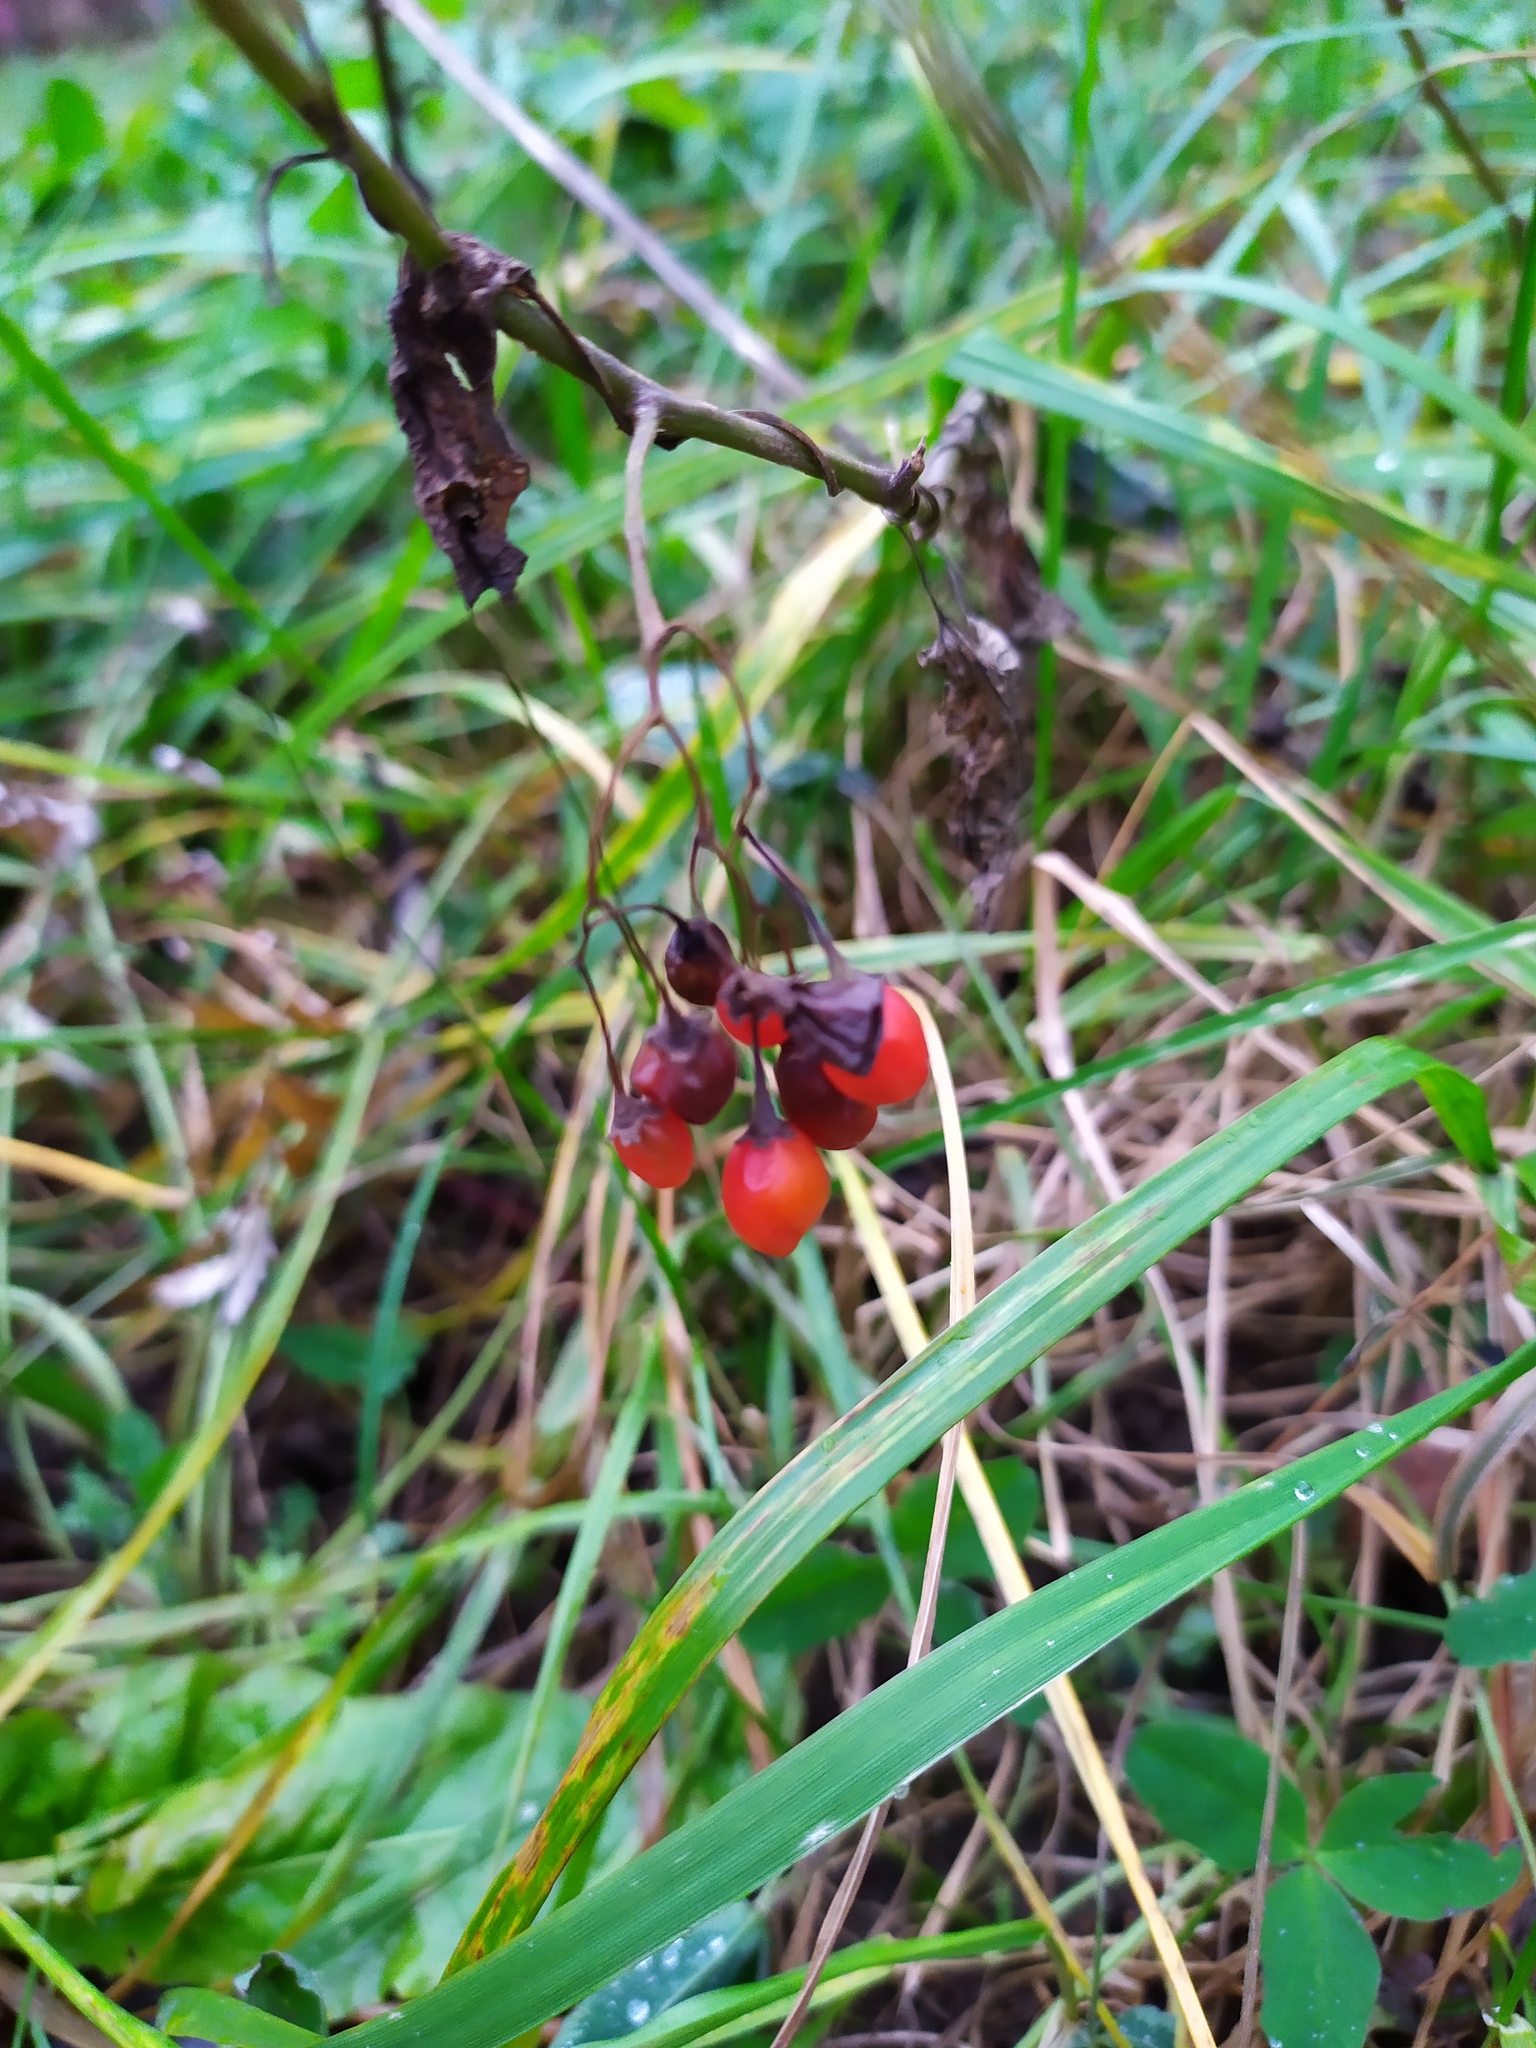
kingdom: Plantae
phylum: Tracheophyta
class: Magnoliopsida
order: Solanales
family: Solanaceae
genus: Solanum
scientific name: Solanum dulcamara
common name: Climbing nightshade
